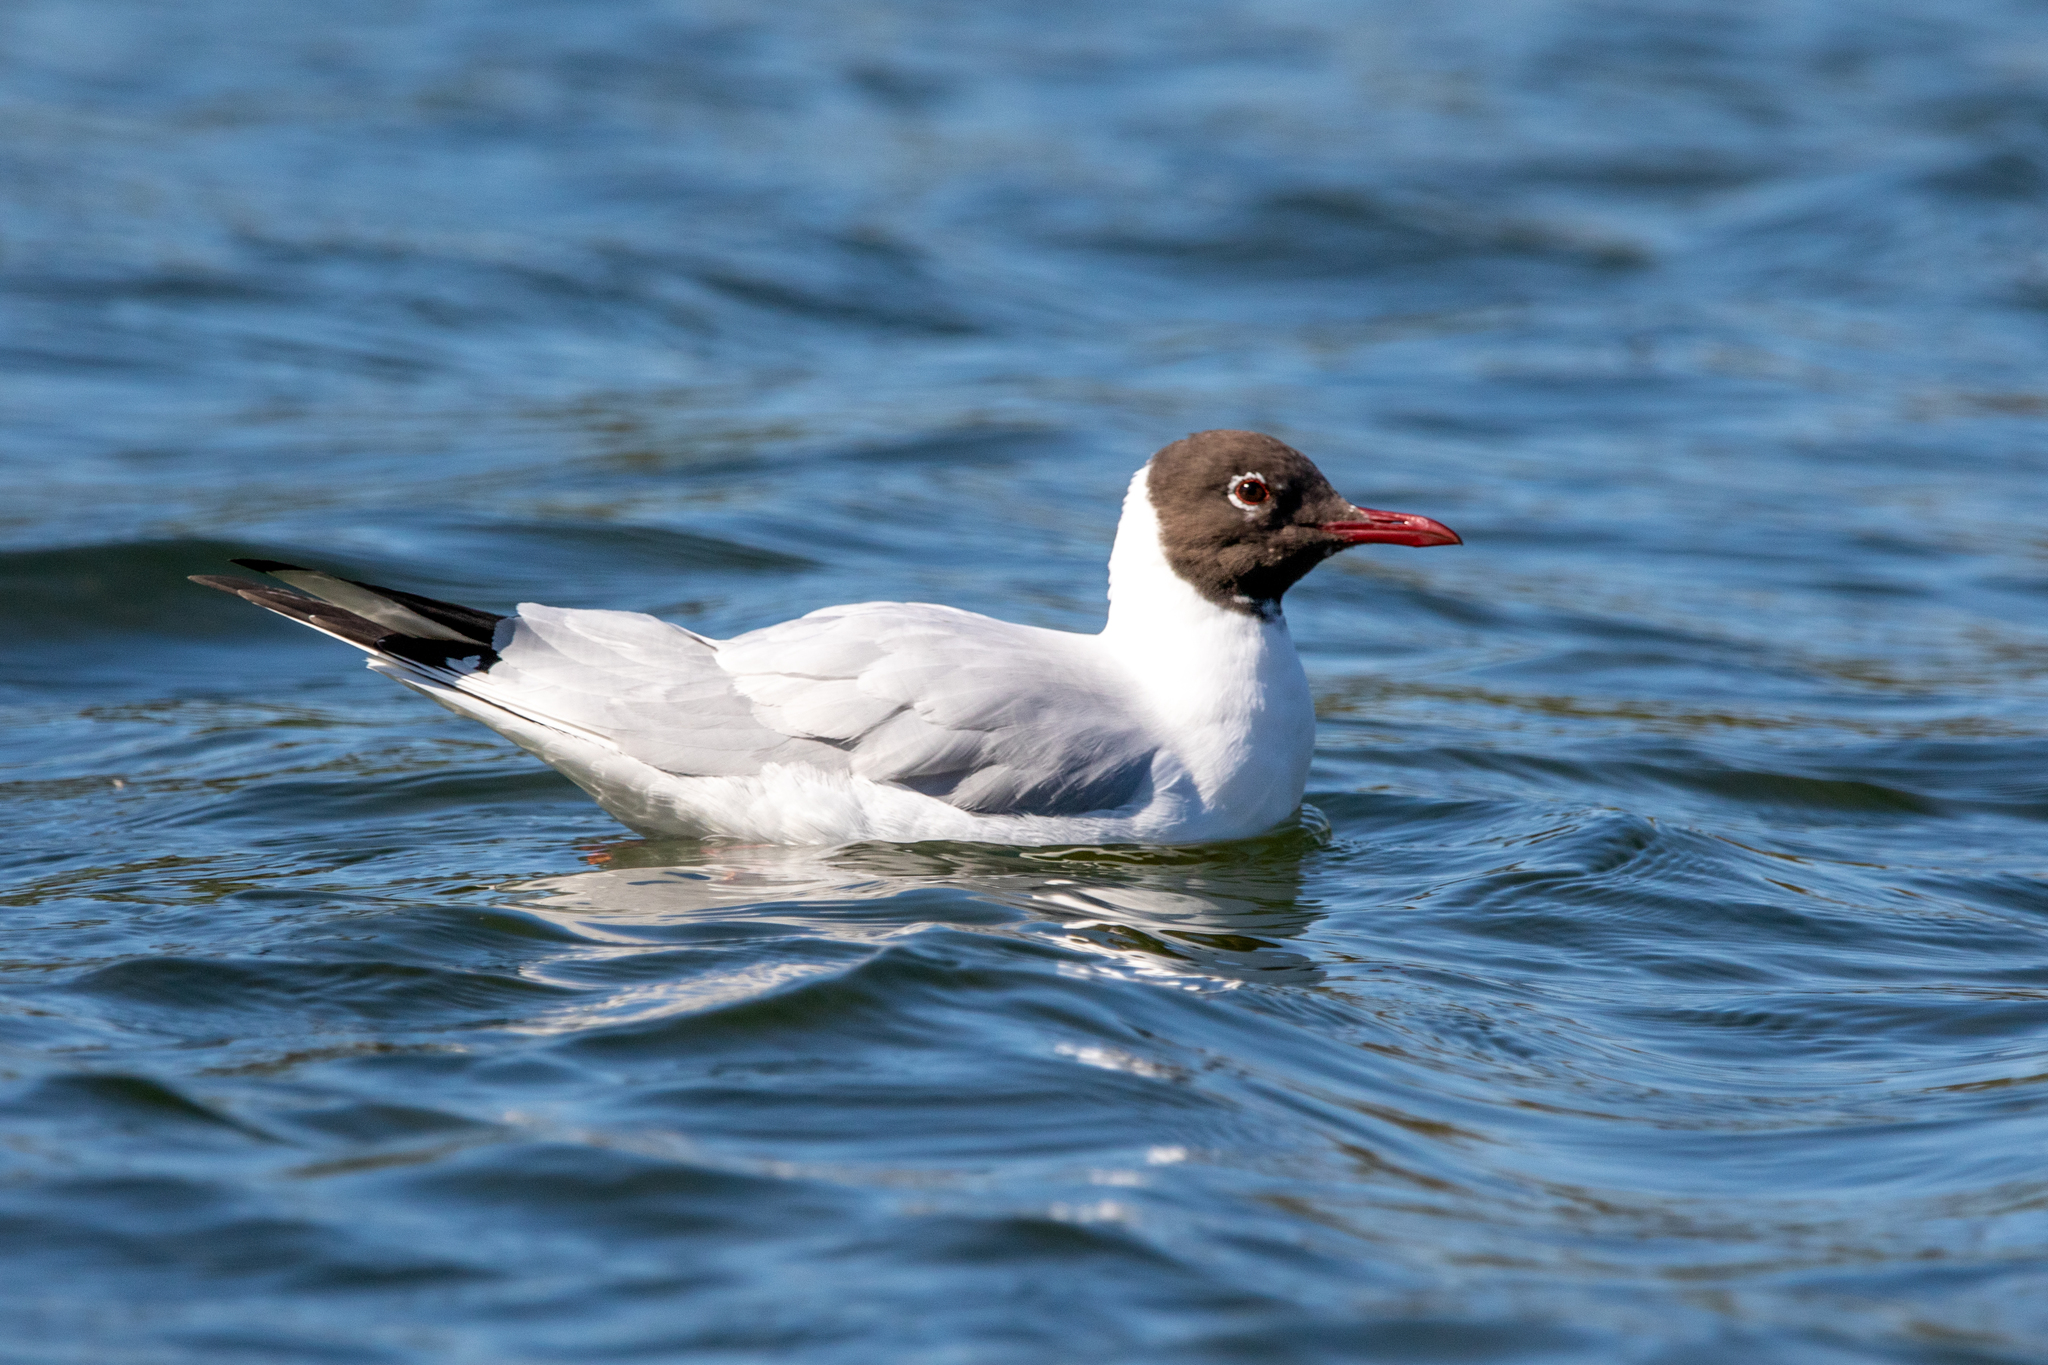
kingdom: Animalia
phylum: Chordata
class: Aves
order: Charadriiformes
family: Laridae
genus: Chroicocephalus
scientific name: Chroicocephalus ridibundus
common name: Black-headed gull
